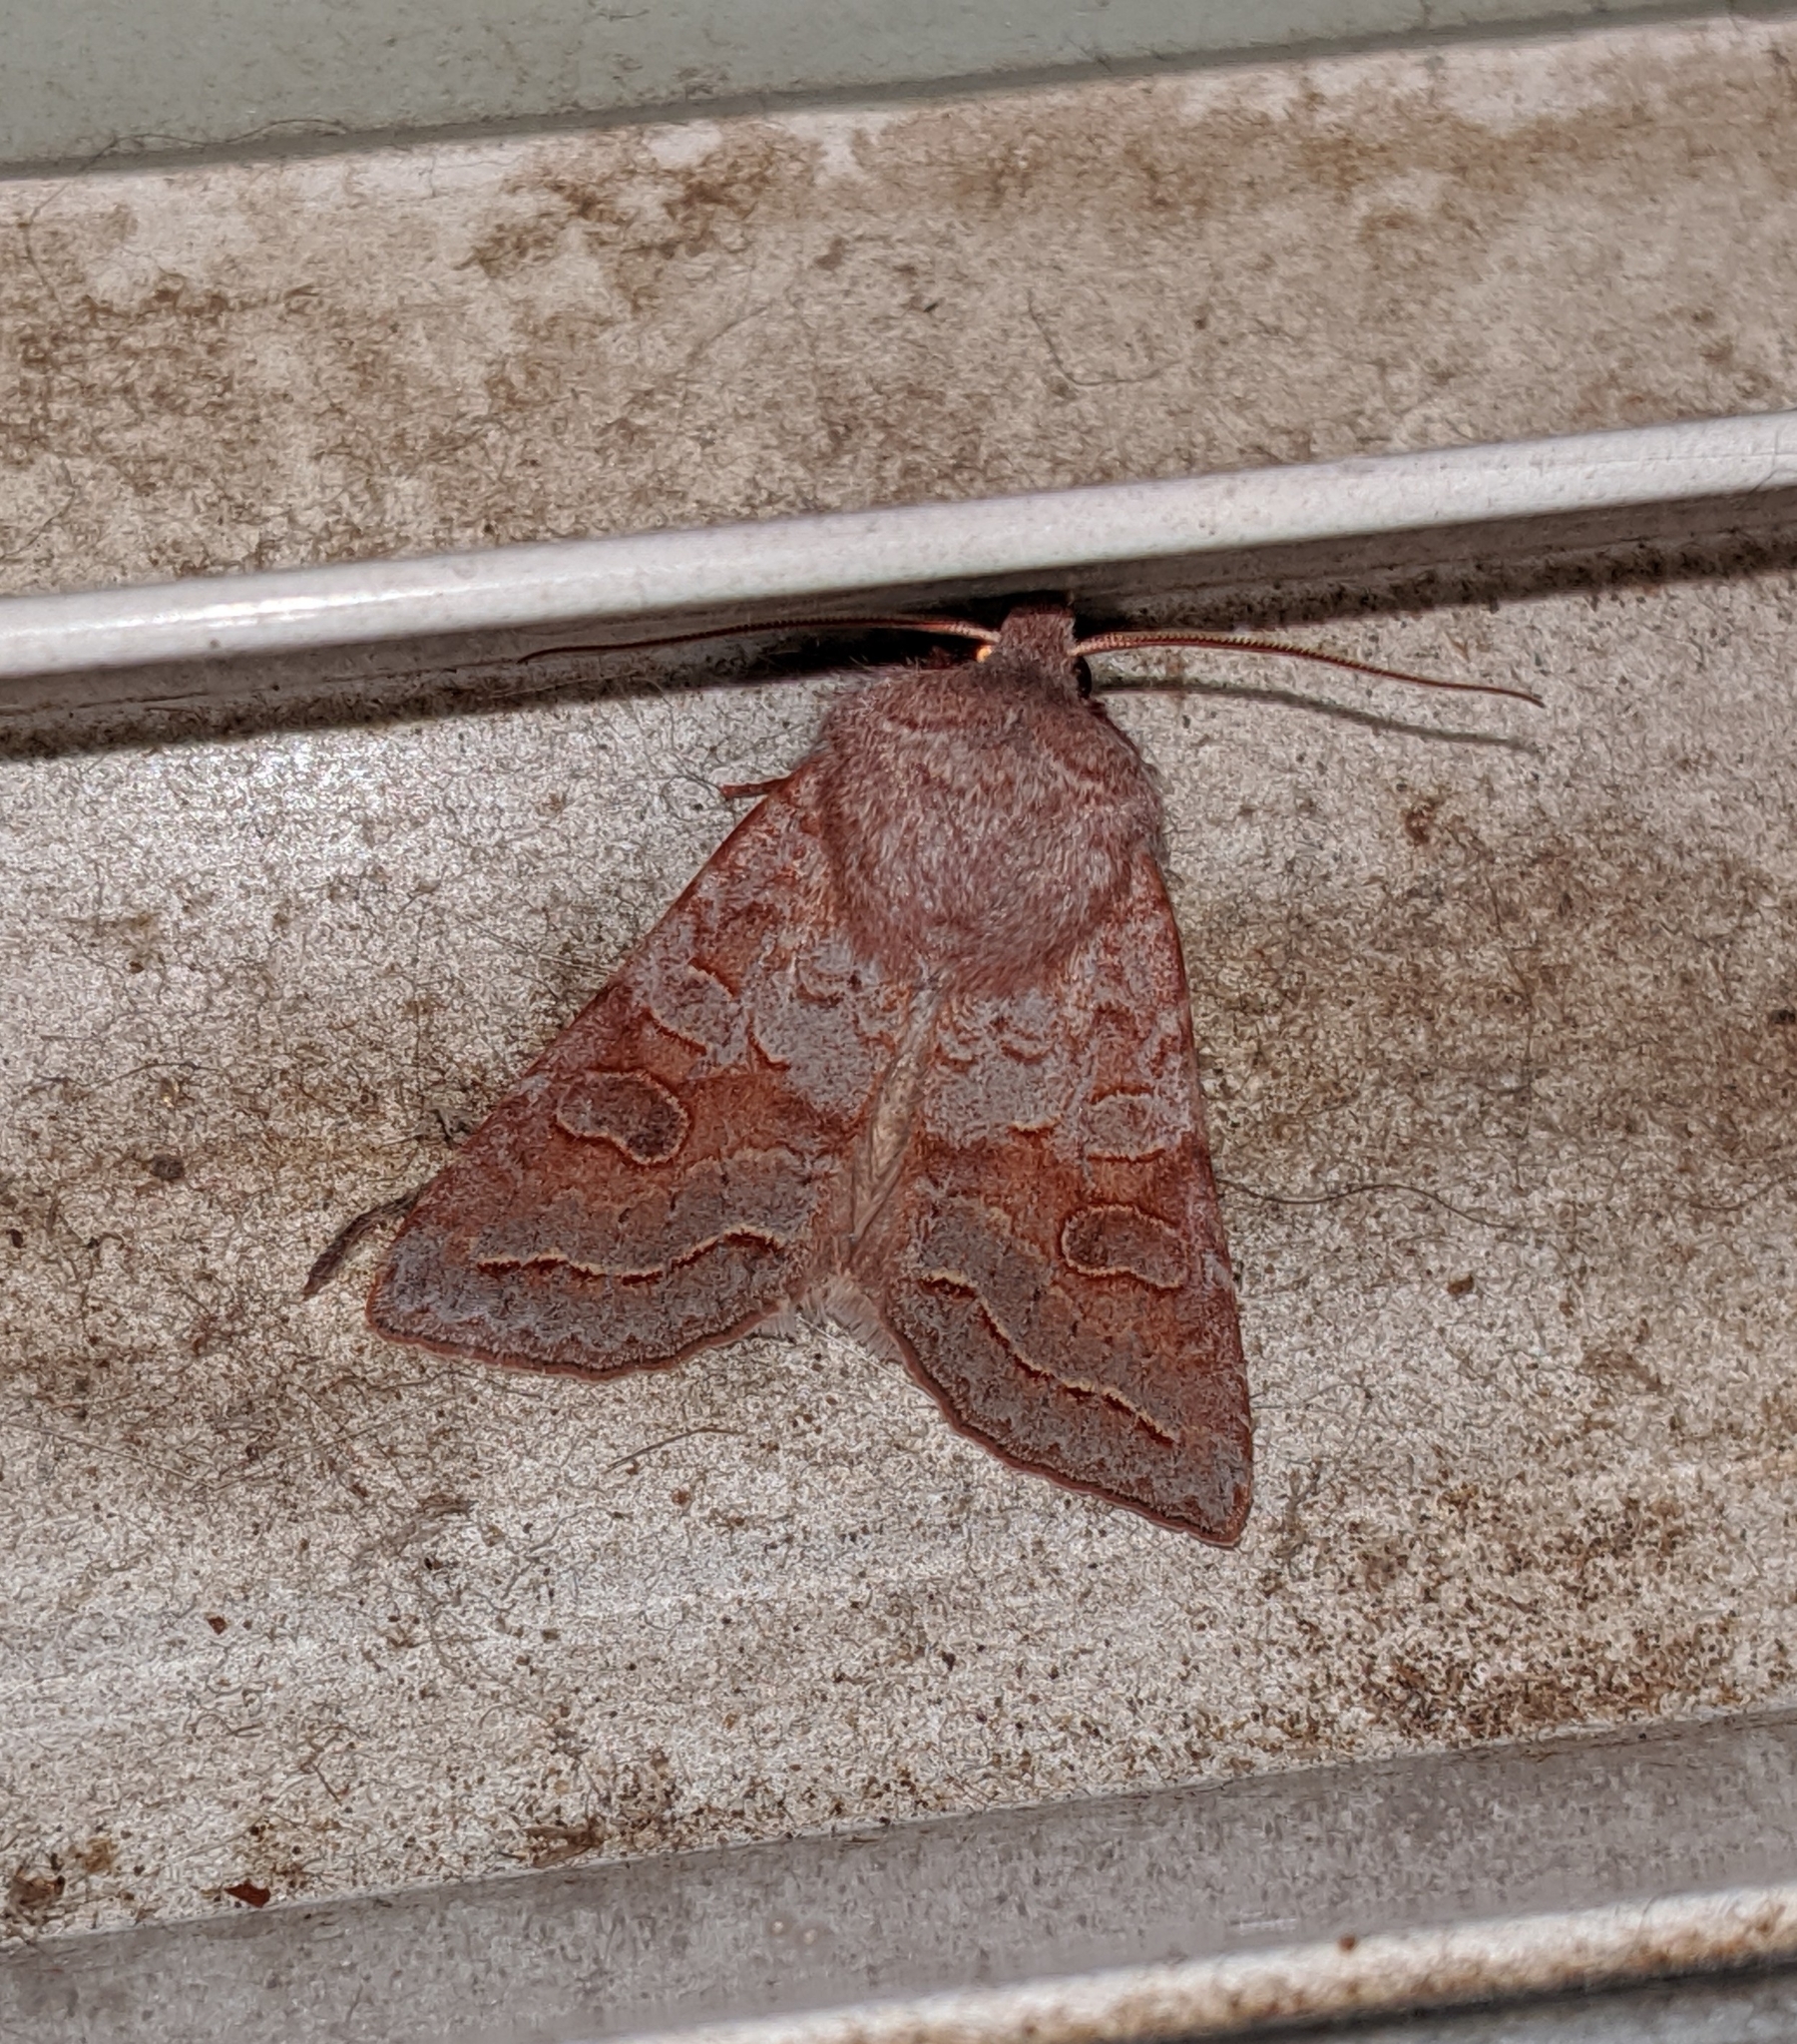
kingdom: Animalia
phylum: Arthropoda
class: Insecta
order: Lepidoptera
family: Noctuidae
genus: Orthosia
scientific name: Orthosia revicta
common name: Rusty whitesided caterpillar
